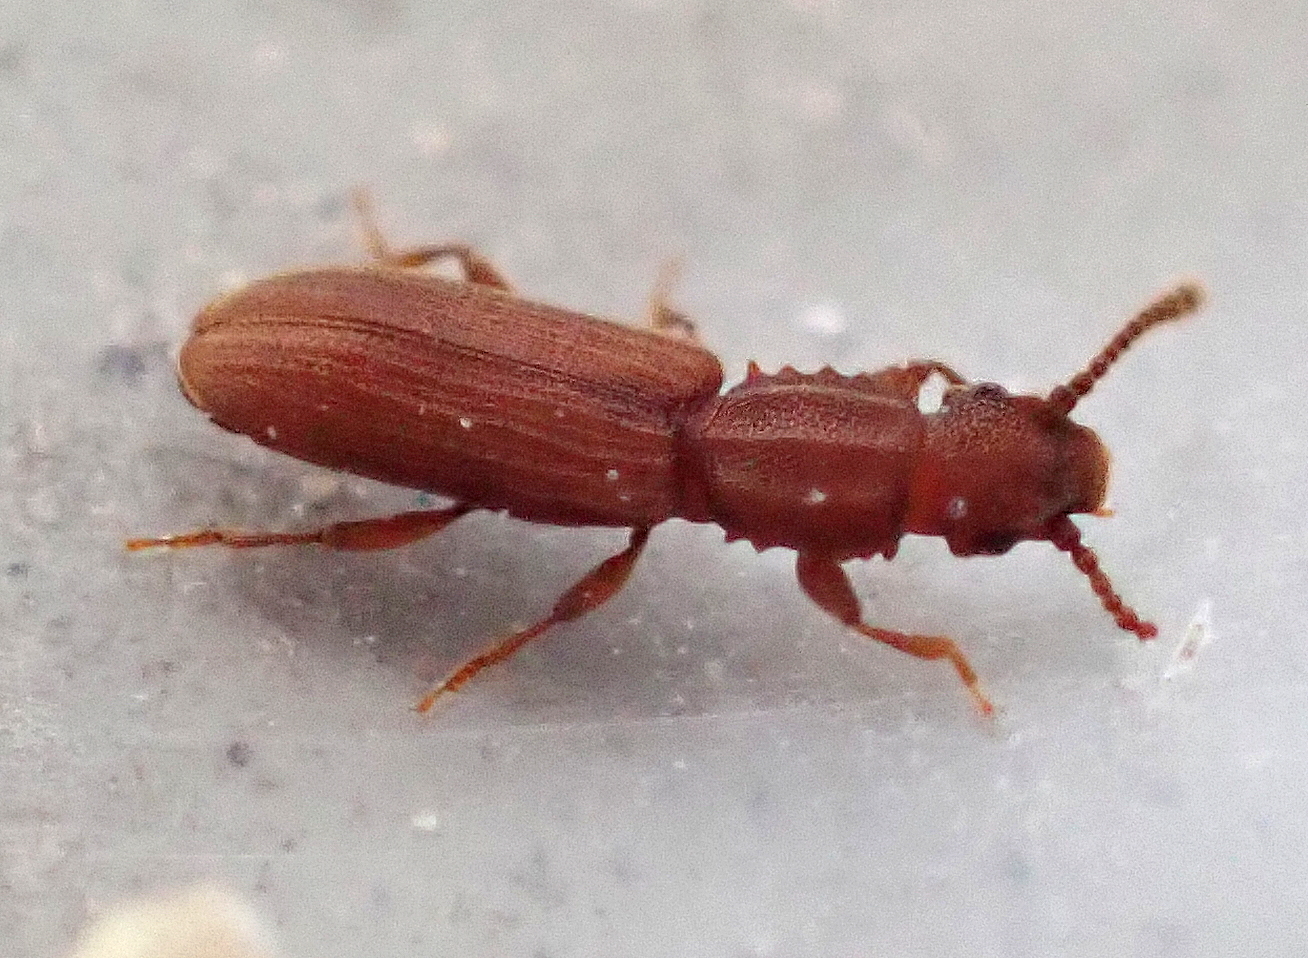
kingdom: Animalia
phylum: Arthropoda
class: Insecta
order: Coleoptera
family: Silvanidae
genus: Oryzaephilus
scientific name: Oryzaephilus surinamensis
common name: Sawtoothed grain beetle
